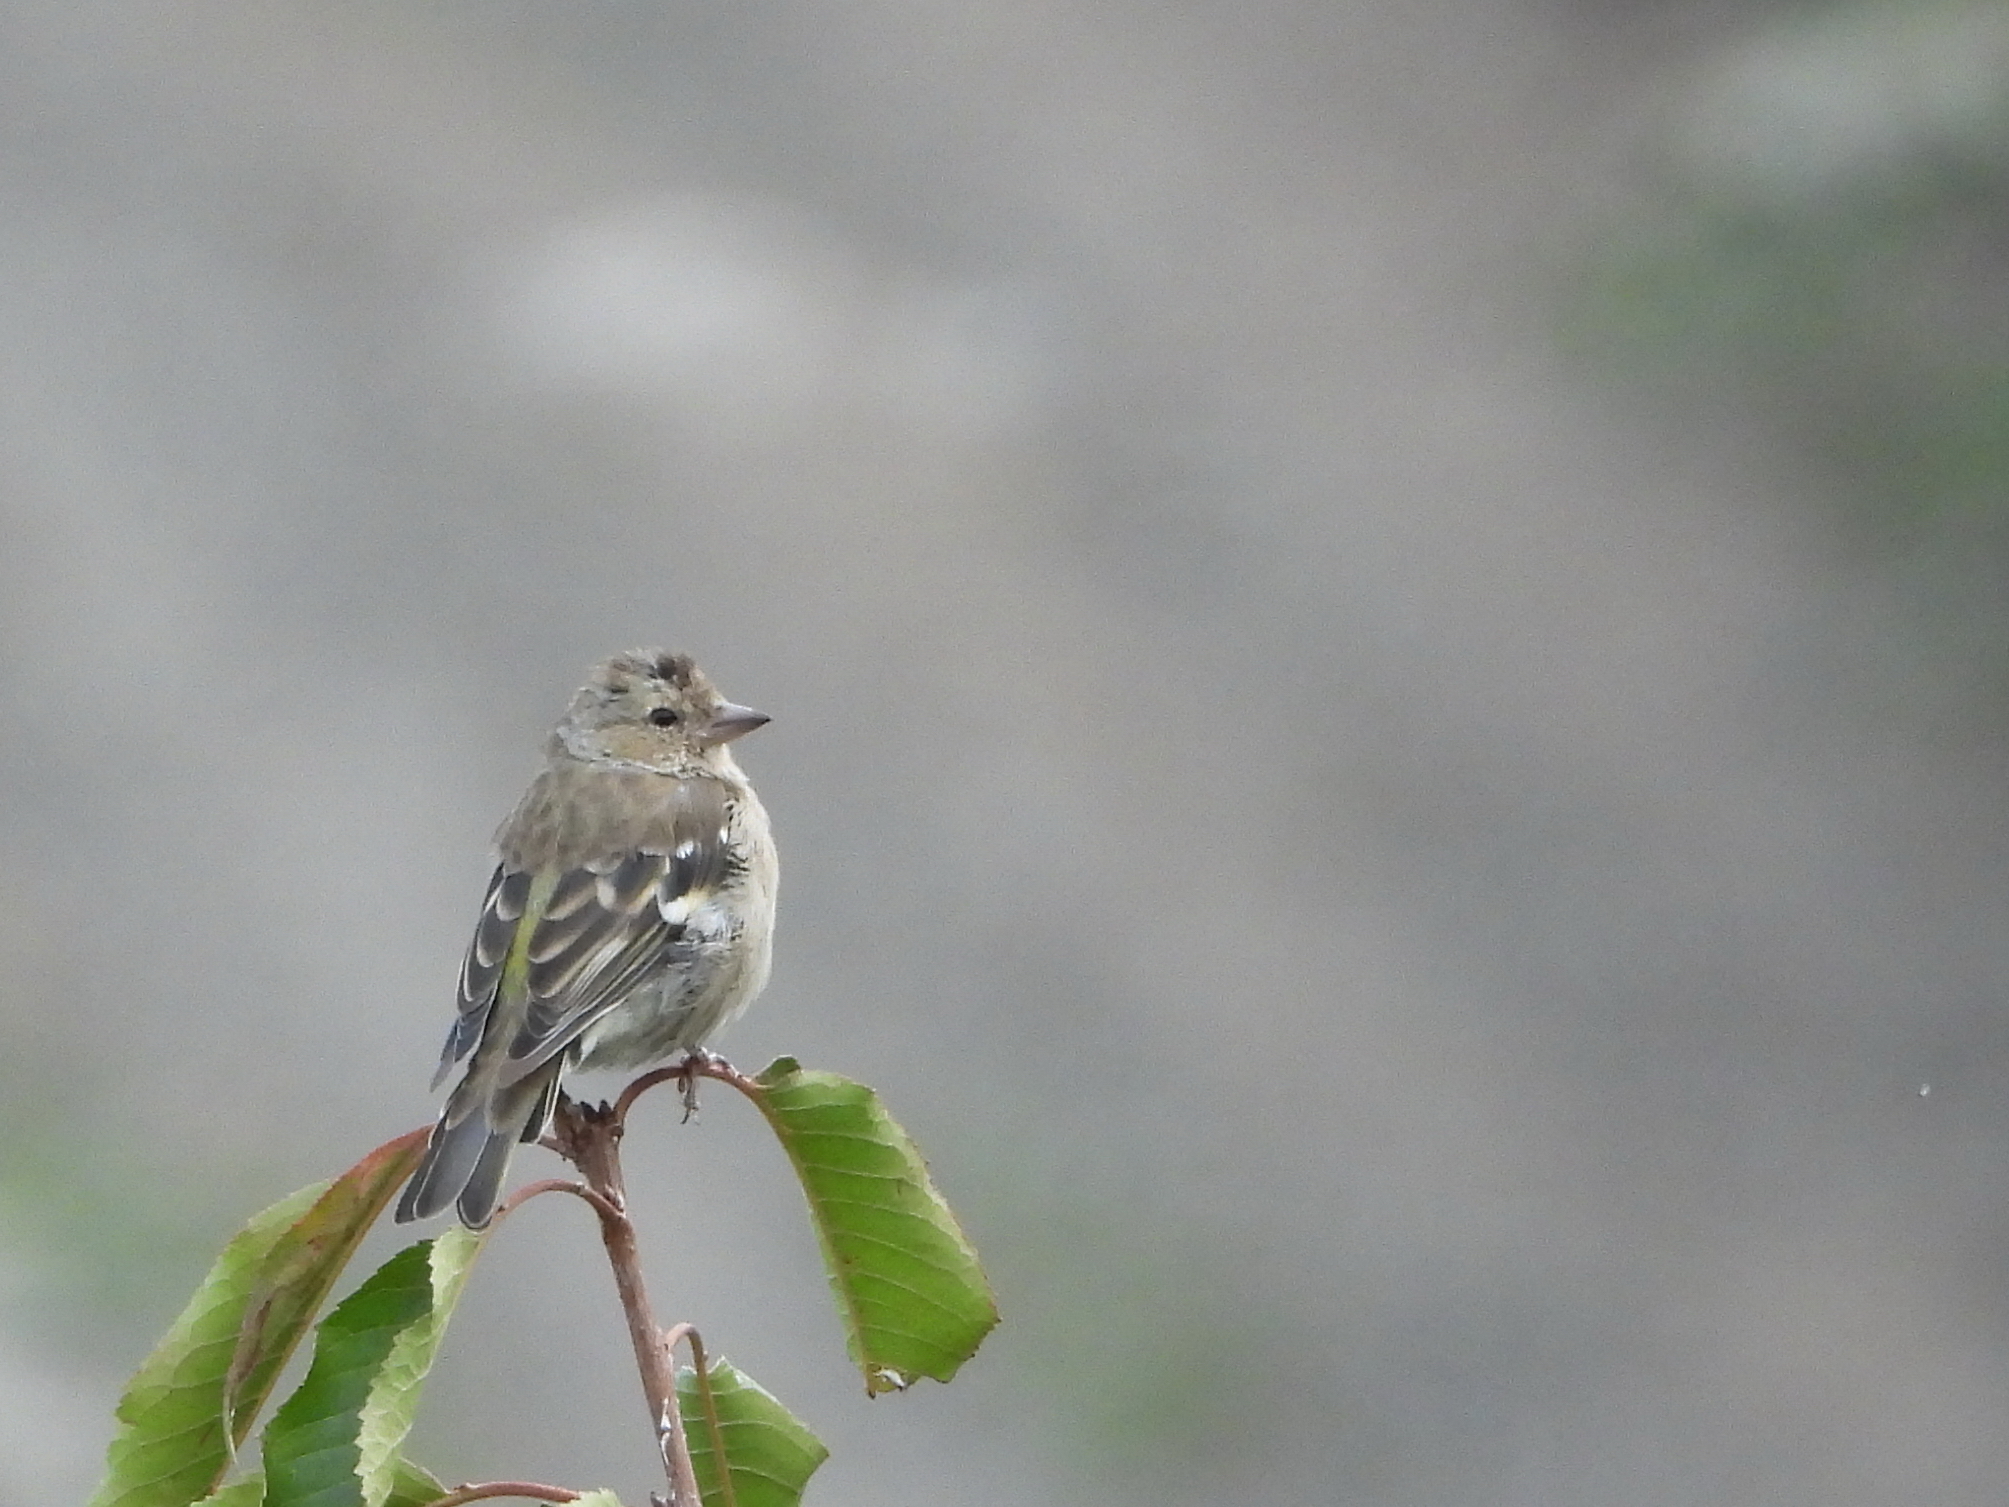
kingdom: Animalia
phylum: Chordata
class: Aves
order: Passeriformes
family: Fringillidae
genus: Fringilla
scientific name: Fringilla coelebs
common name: Common chaffinch
